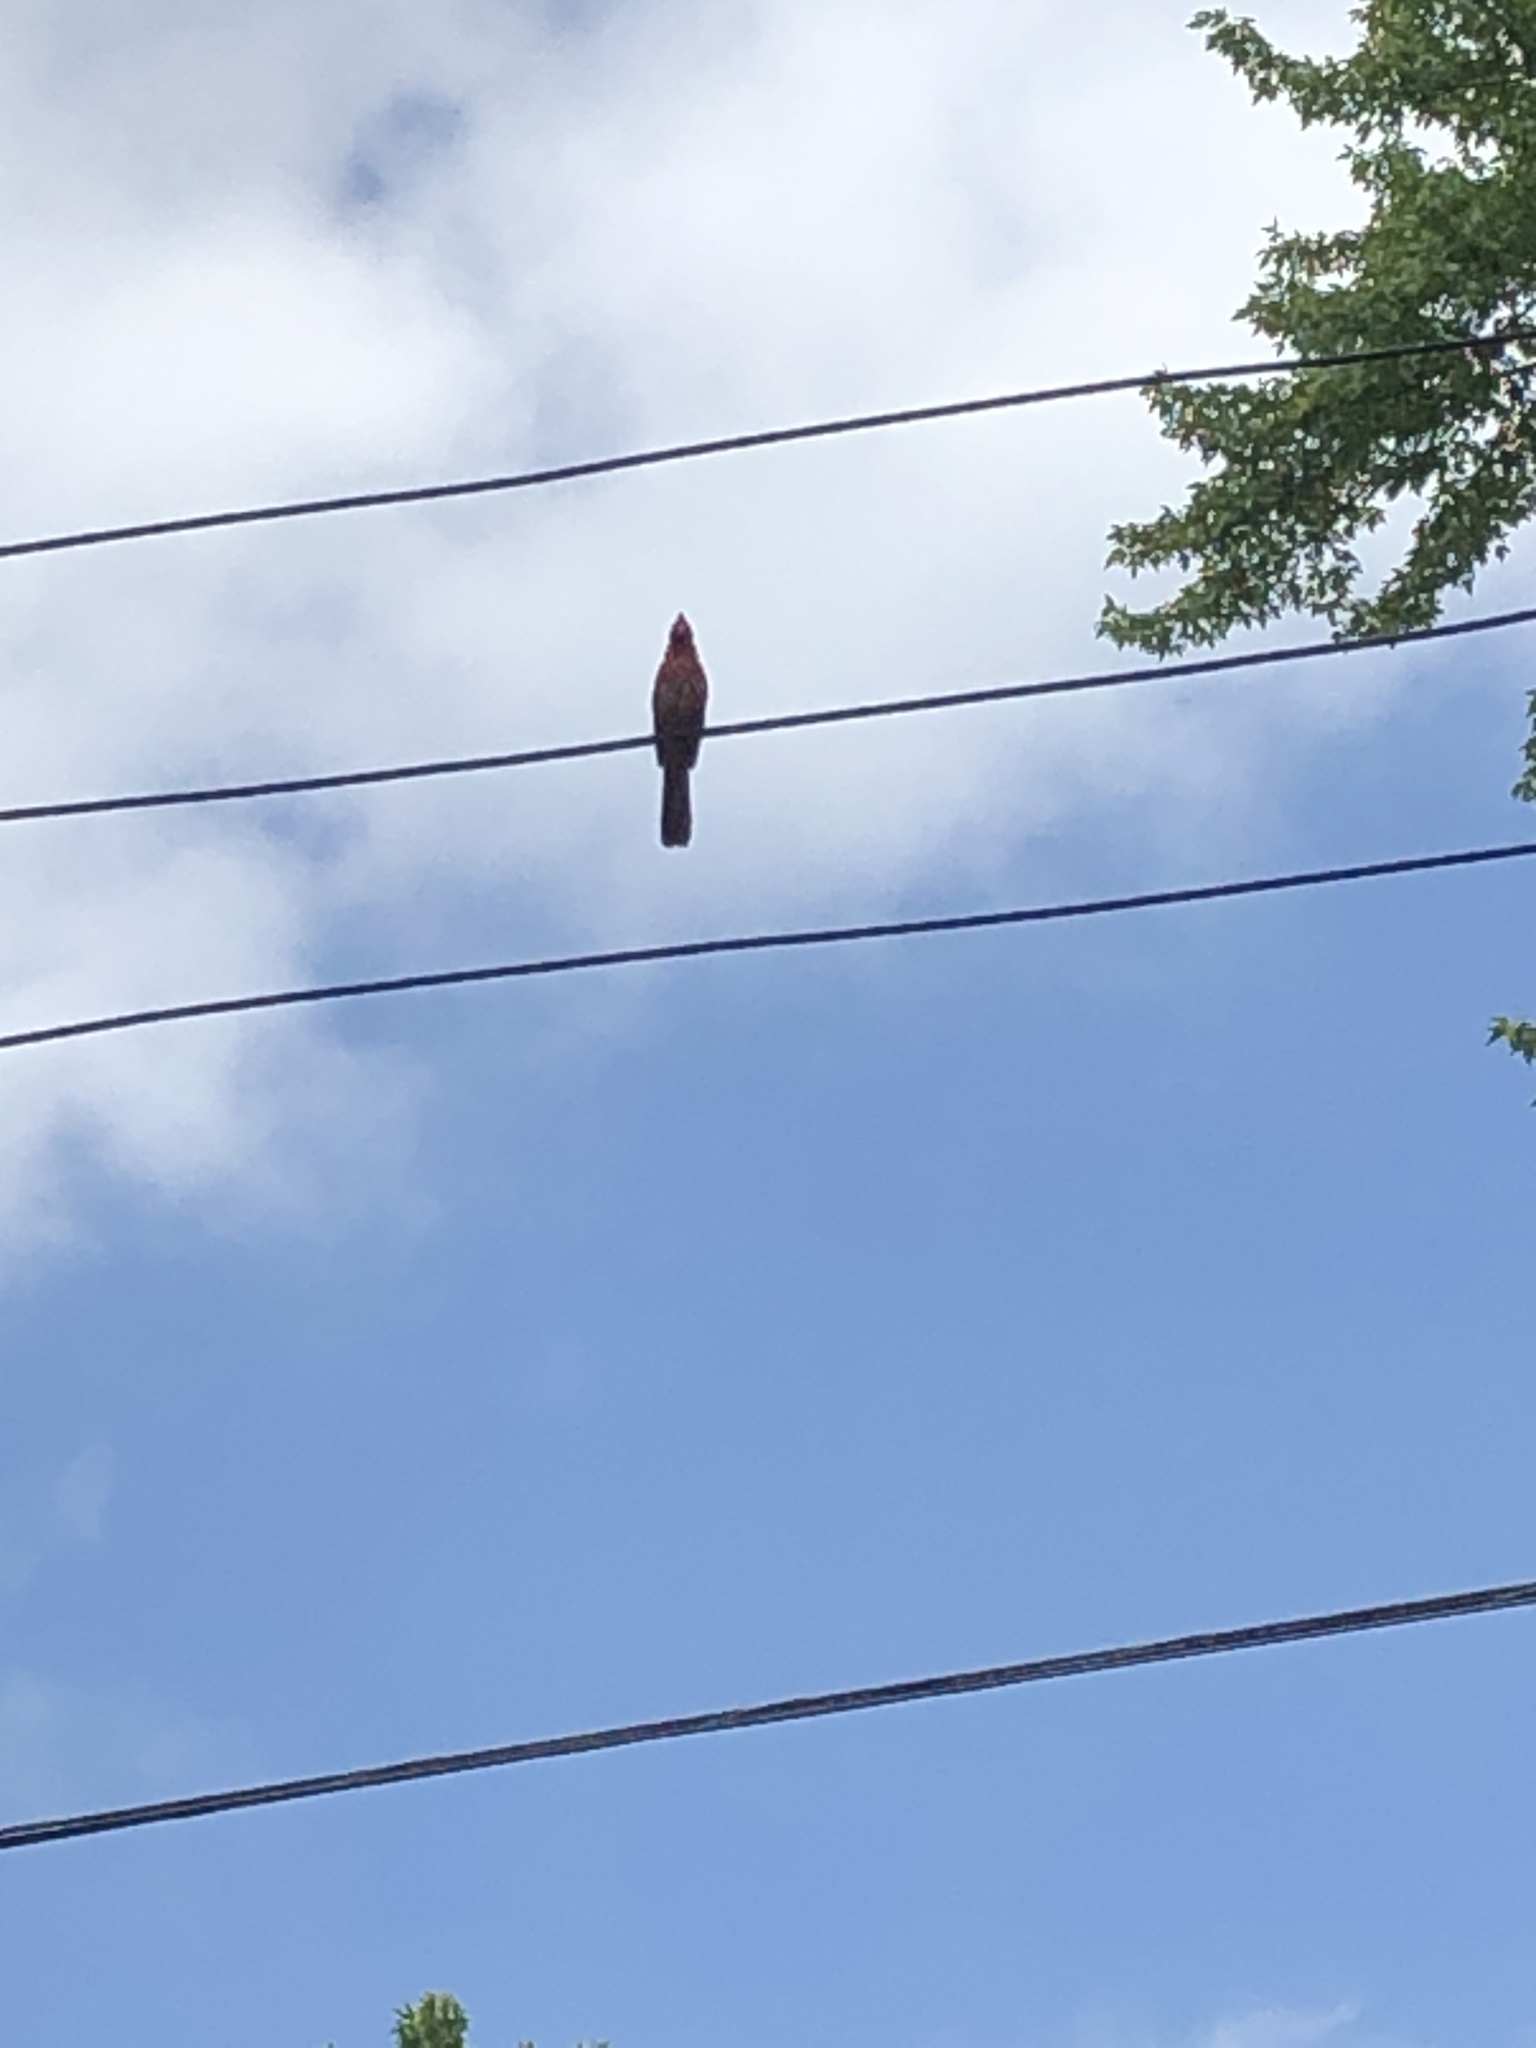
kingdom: Animalia
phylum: Chordata
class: Aves
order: Passeriformes
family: Cardinalidae
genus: Cardinalis
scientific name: Cardinalis cardinalis
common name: Northern cardinal
